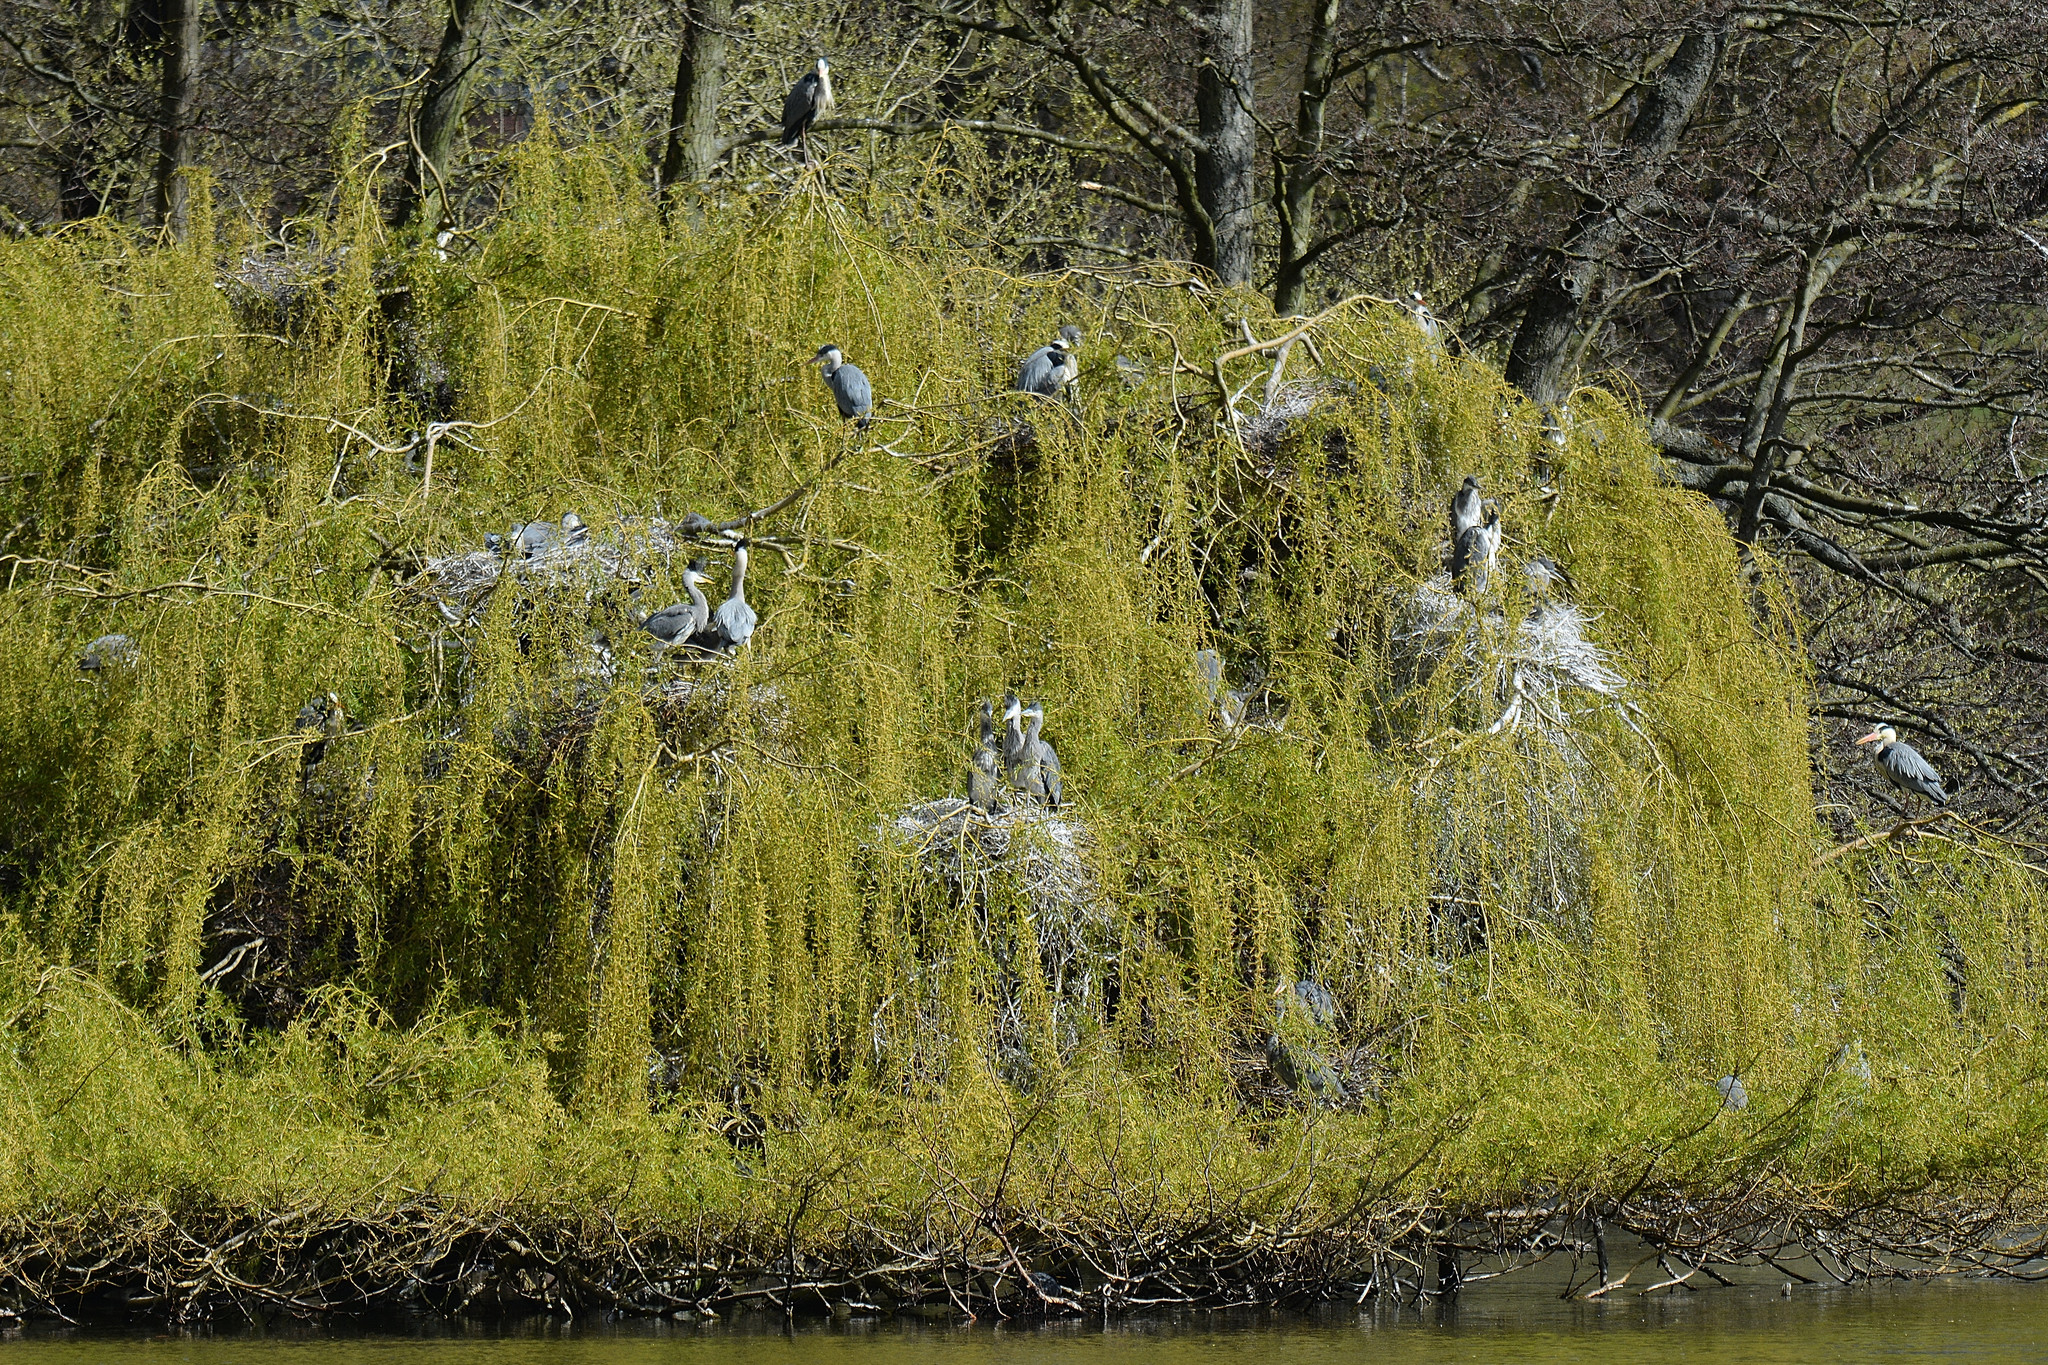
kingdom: Animalia
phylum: Chordata
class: Aves
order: Pelecaniformes
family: Ardeidae
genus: Ardea
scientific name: Ardea cinerea
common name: Grey heron
